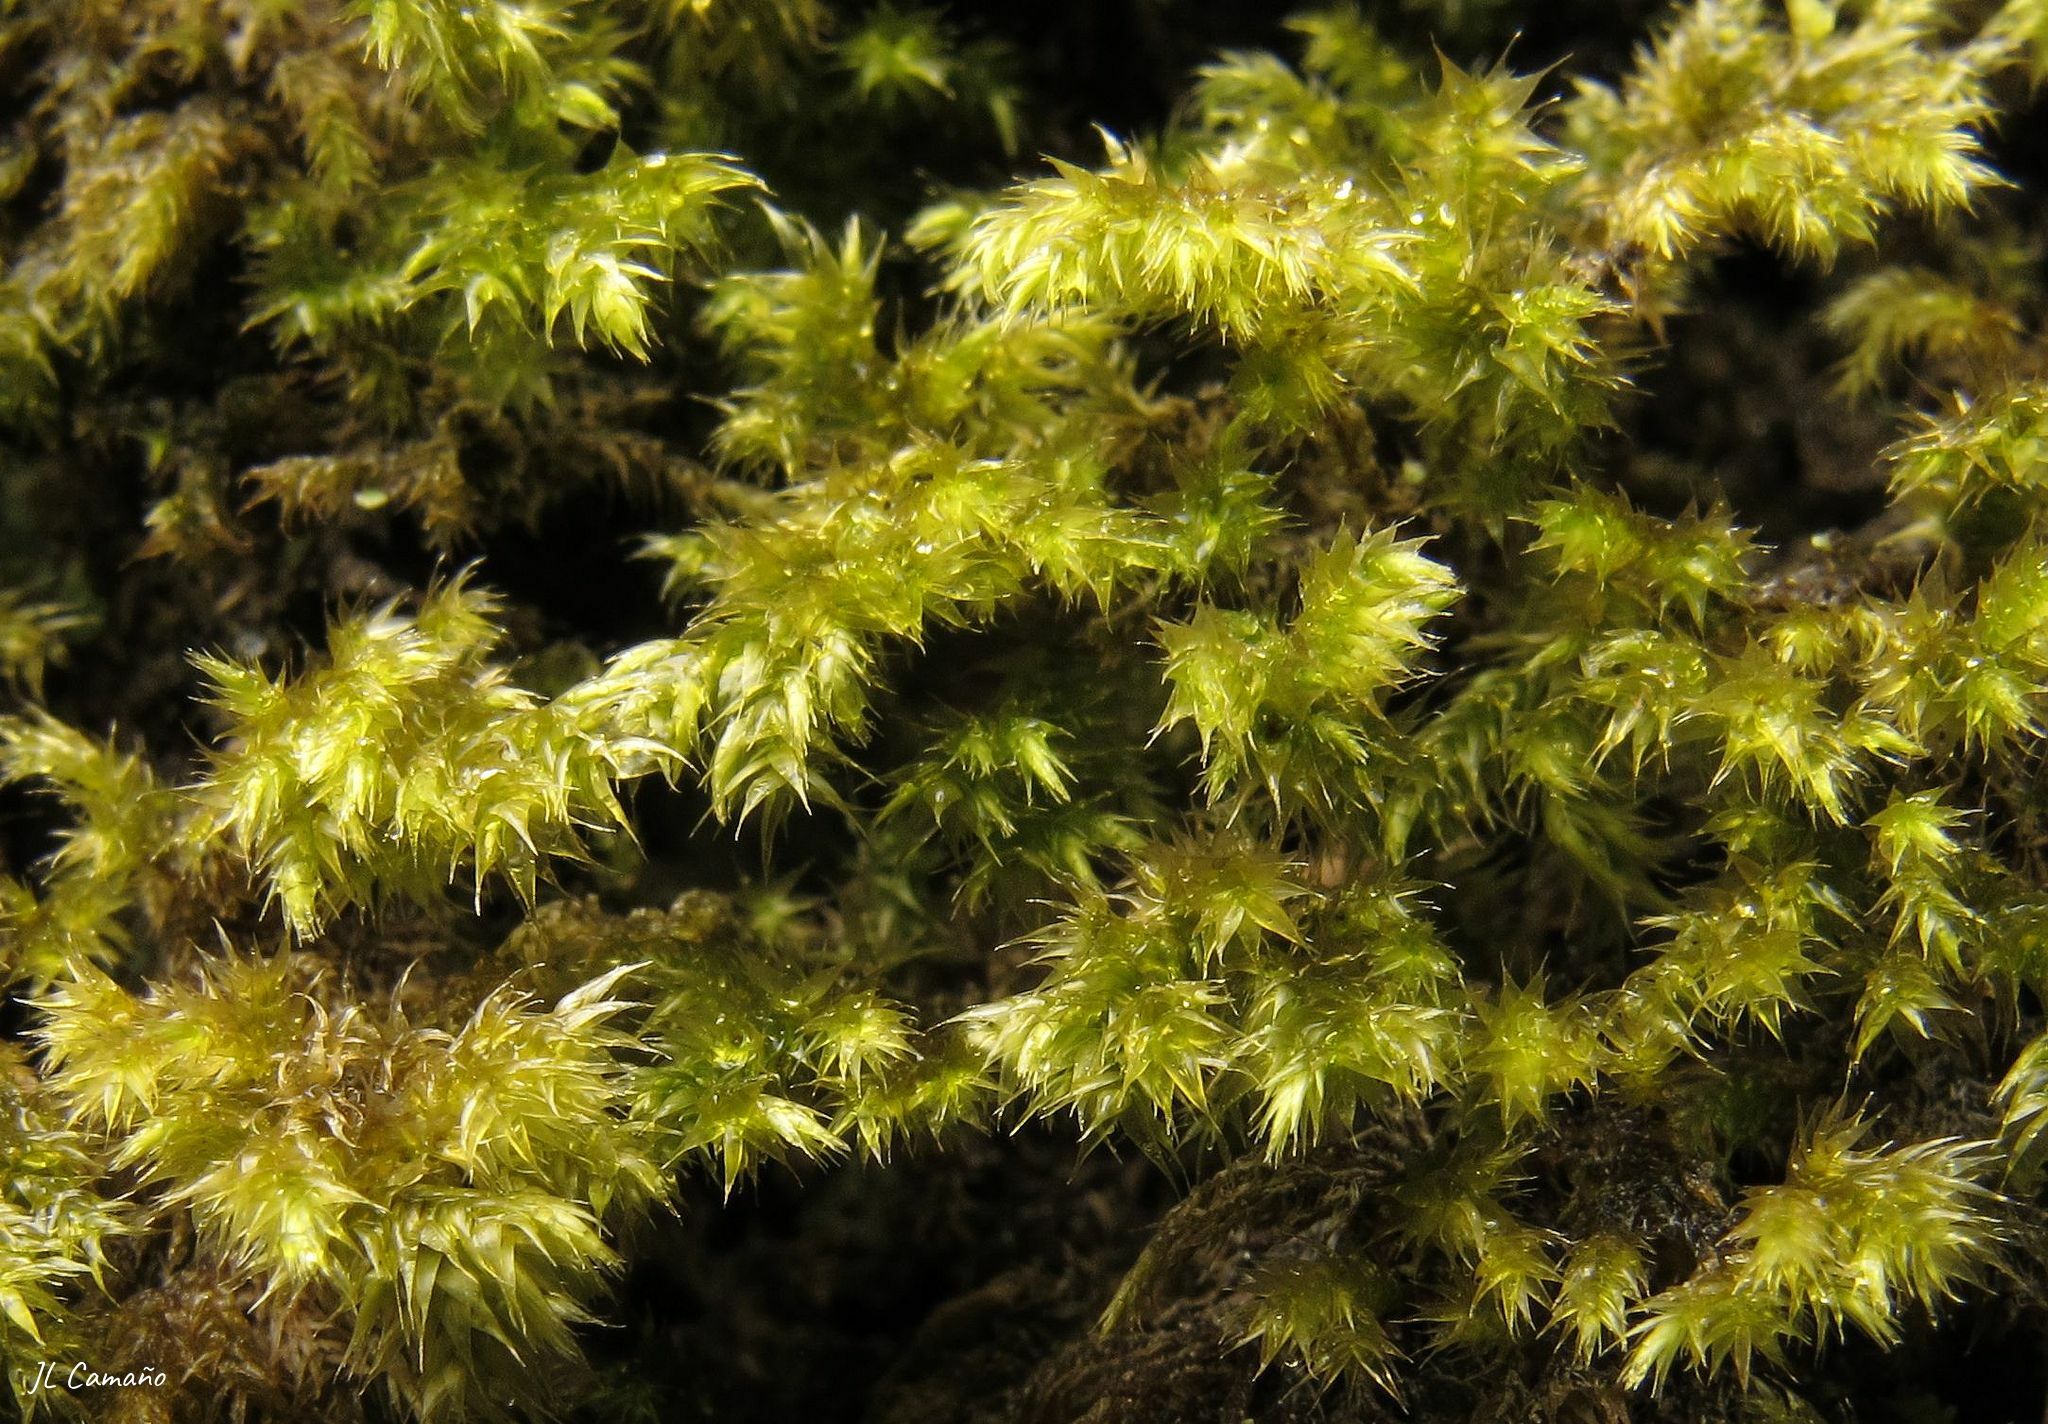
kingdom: Plantae
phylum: Bryophyta
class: Bryopsida
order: Hypnales
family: Lembophyllaceae
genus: Pseudisothecium
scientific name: Pseudisothecium myosuroides
